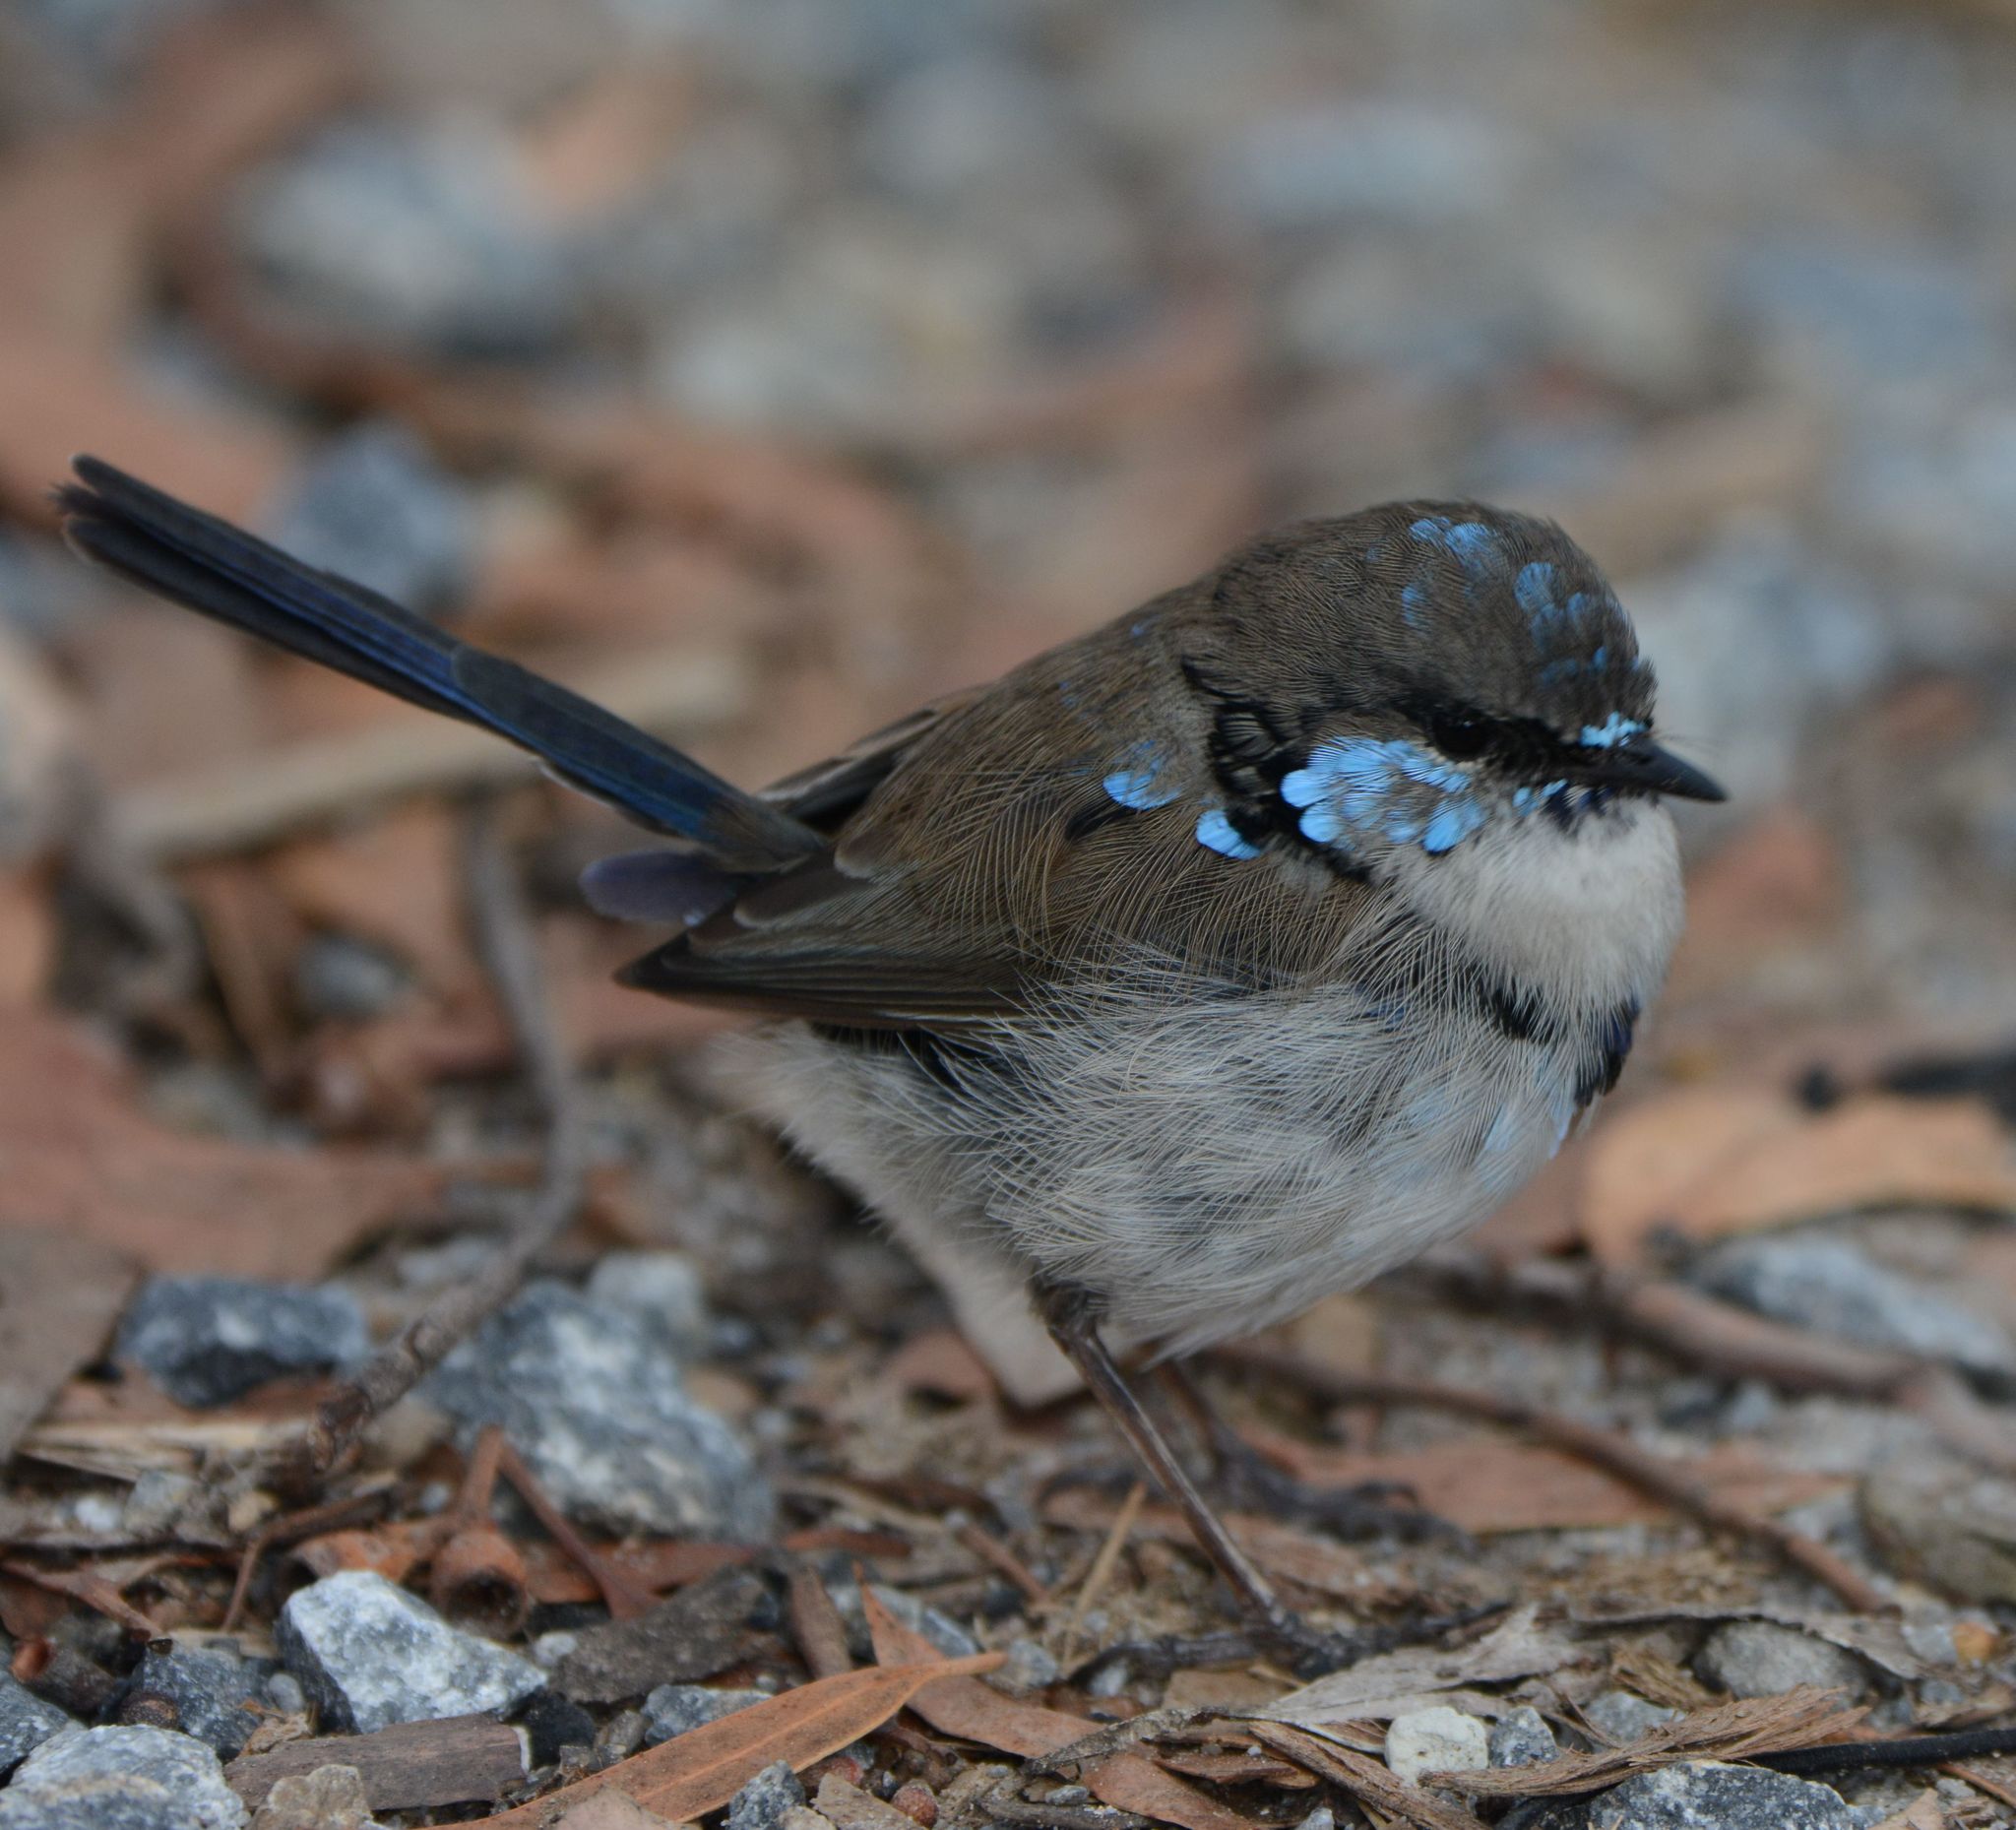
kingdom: Animalia
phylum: Chordata
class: Aves
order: Passeriformes
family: Maluridae
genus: Malurus
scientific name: Malurus cyaneus
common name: Superb fairywren
